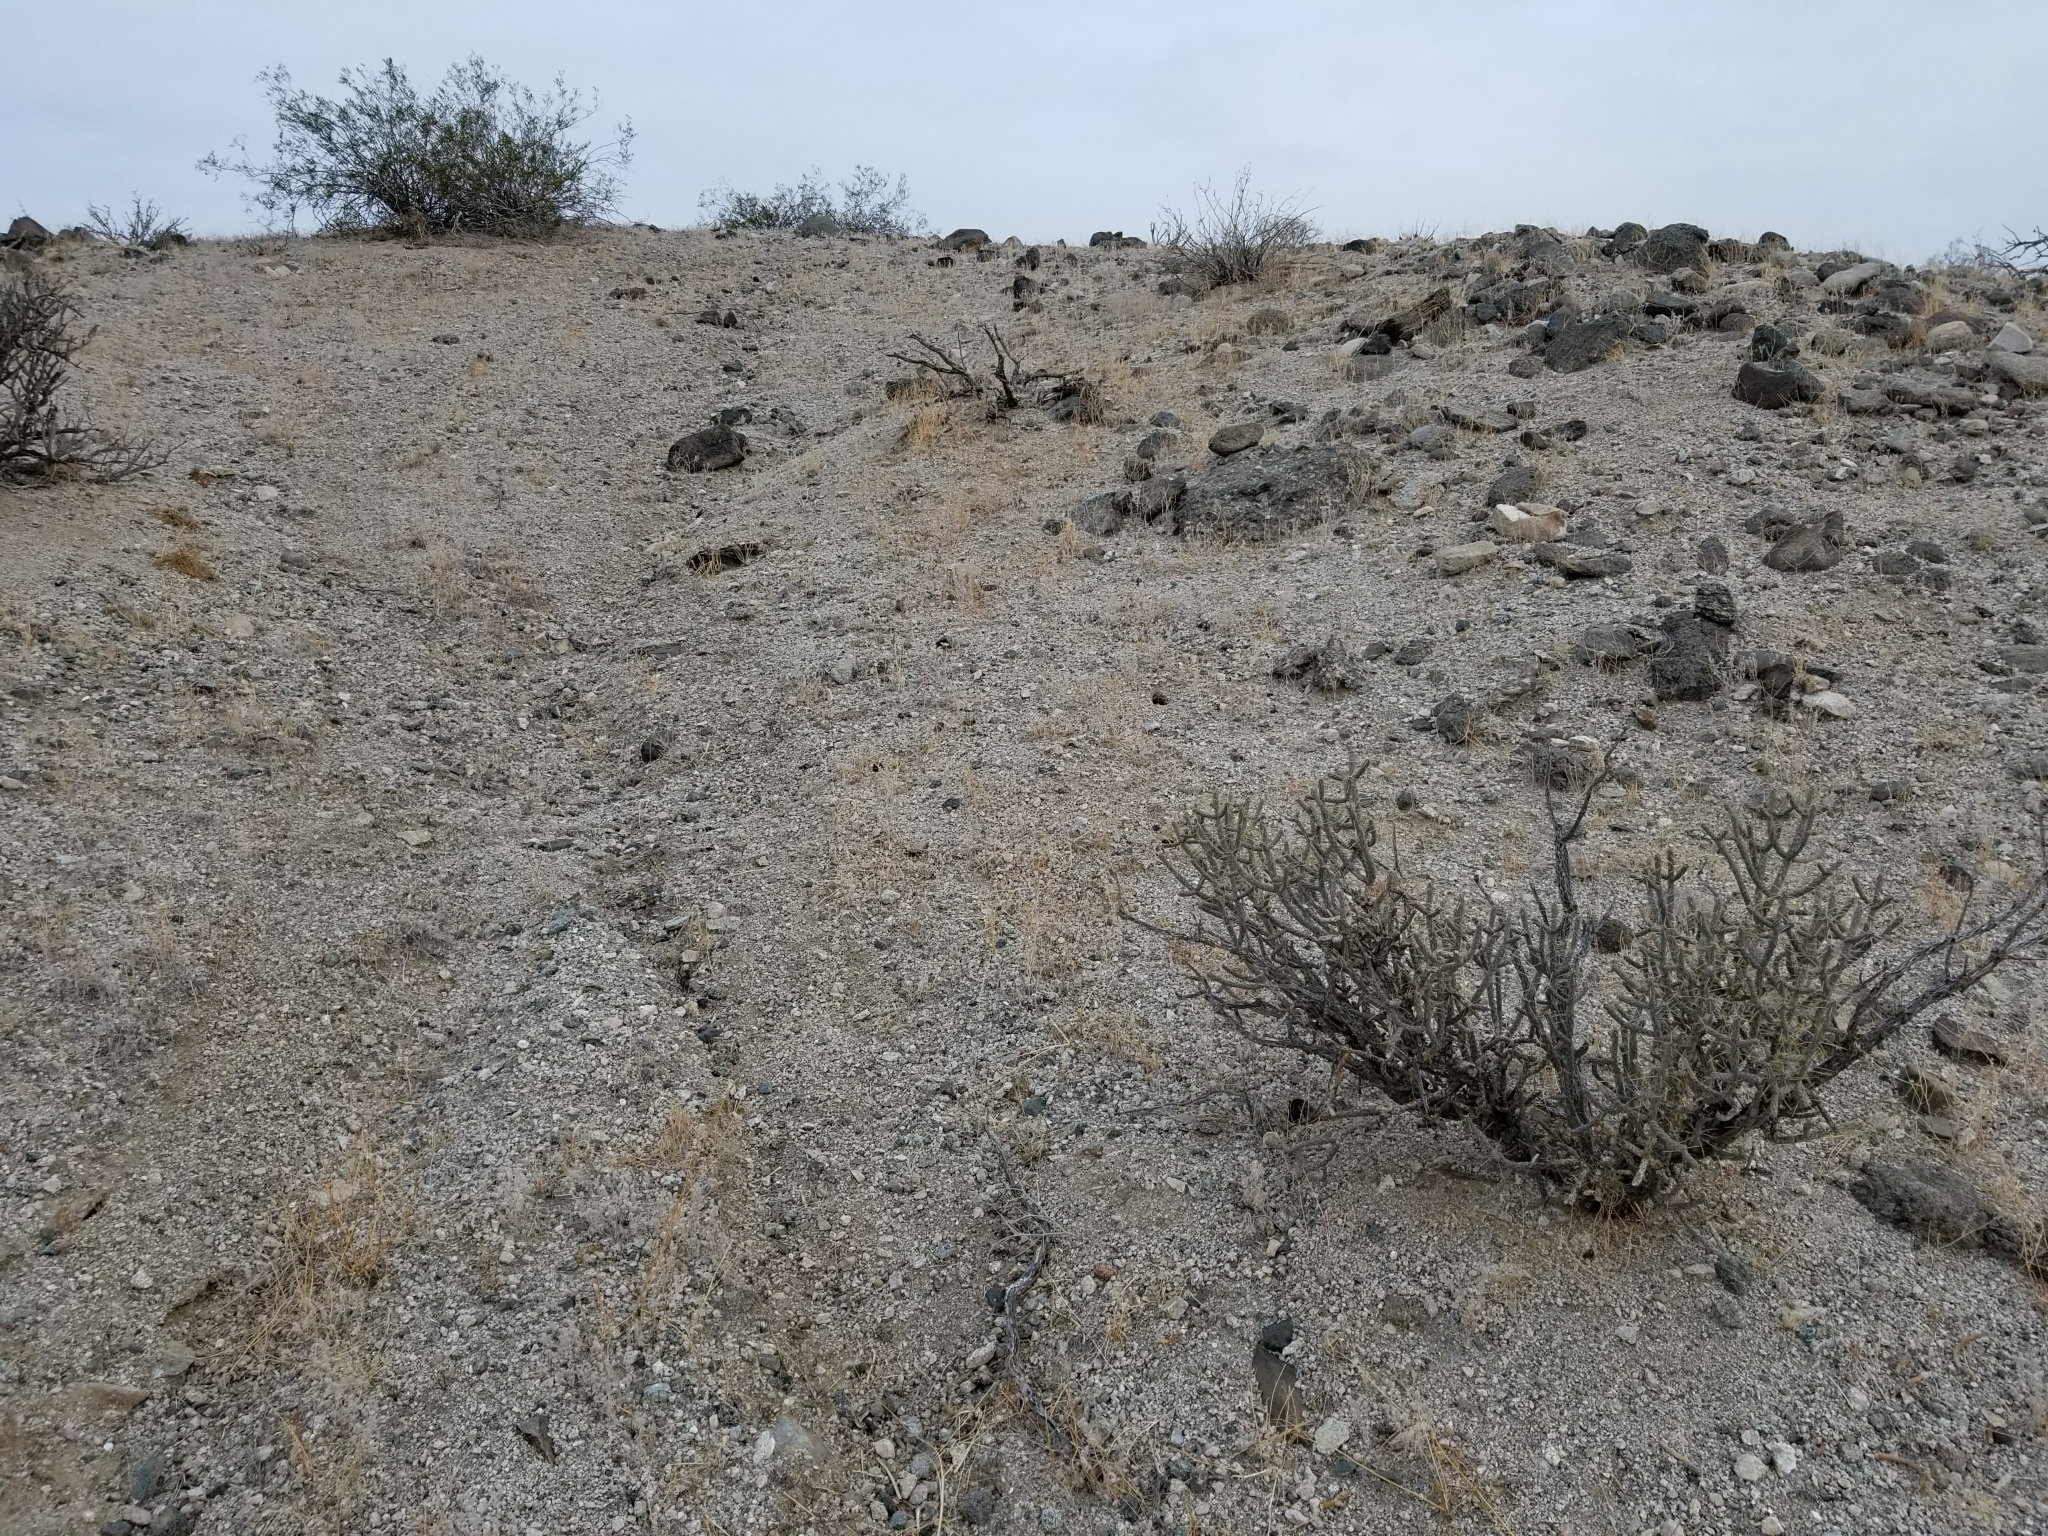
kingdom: Plantae
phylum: Tracheophyta
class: Magnoliopsida
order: Caryophyllales
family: Cactaceae
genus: Cylindropuntia
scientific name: Cylindropuntia ramosissima
